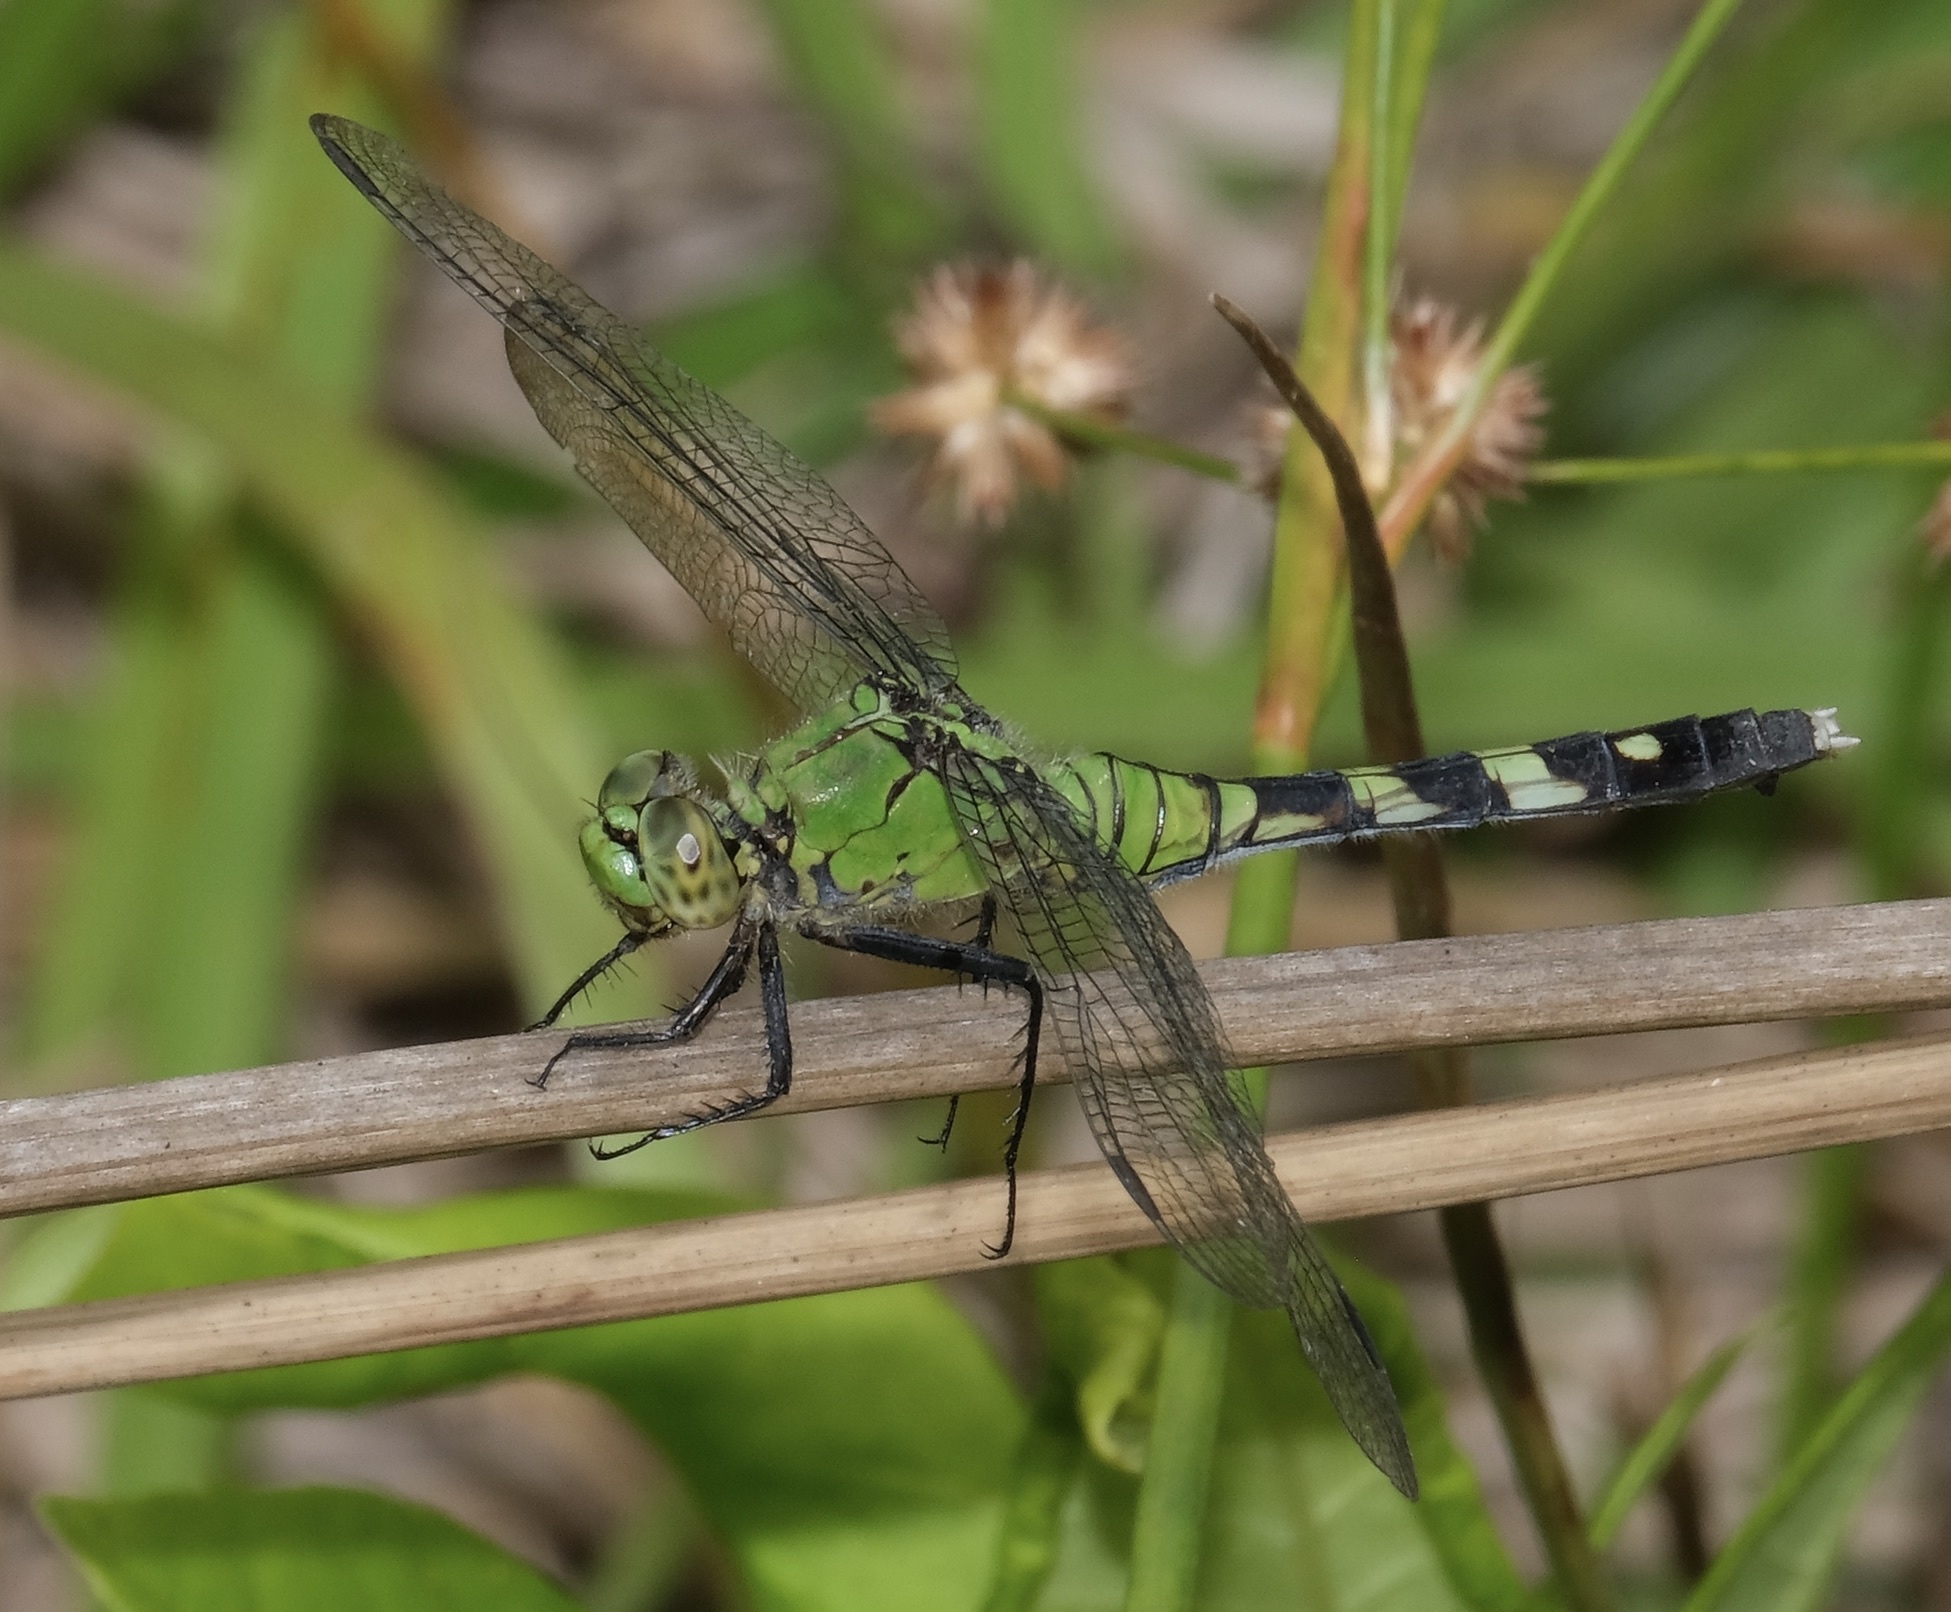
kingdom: Animalia
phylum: Arthropoda
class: Insecta
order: Odonata
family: Libellulidae
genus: Erythemis
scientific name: Erythemis simplicicollis
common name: Eastern pondhawk
